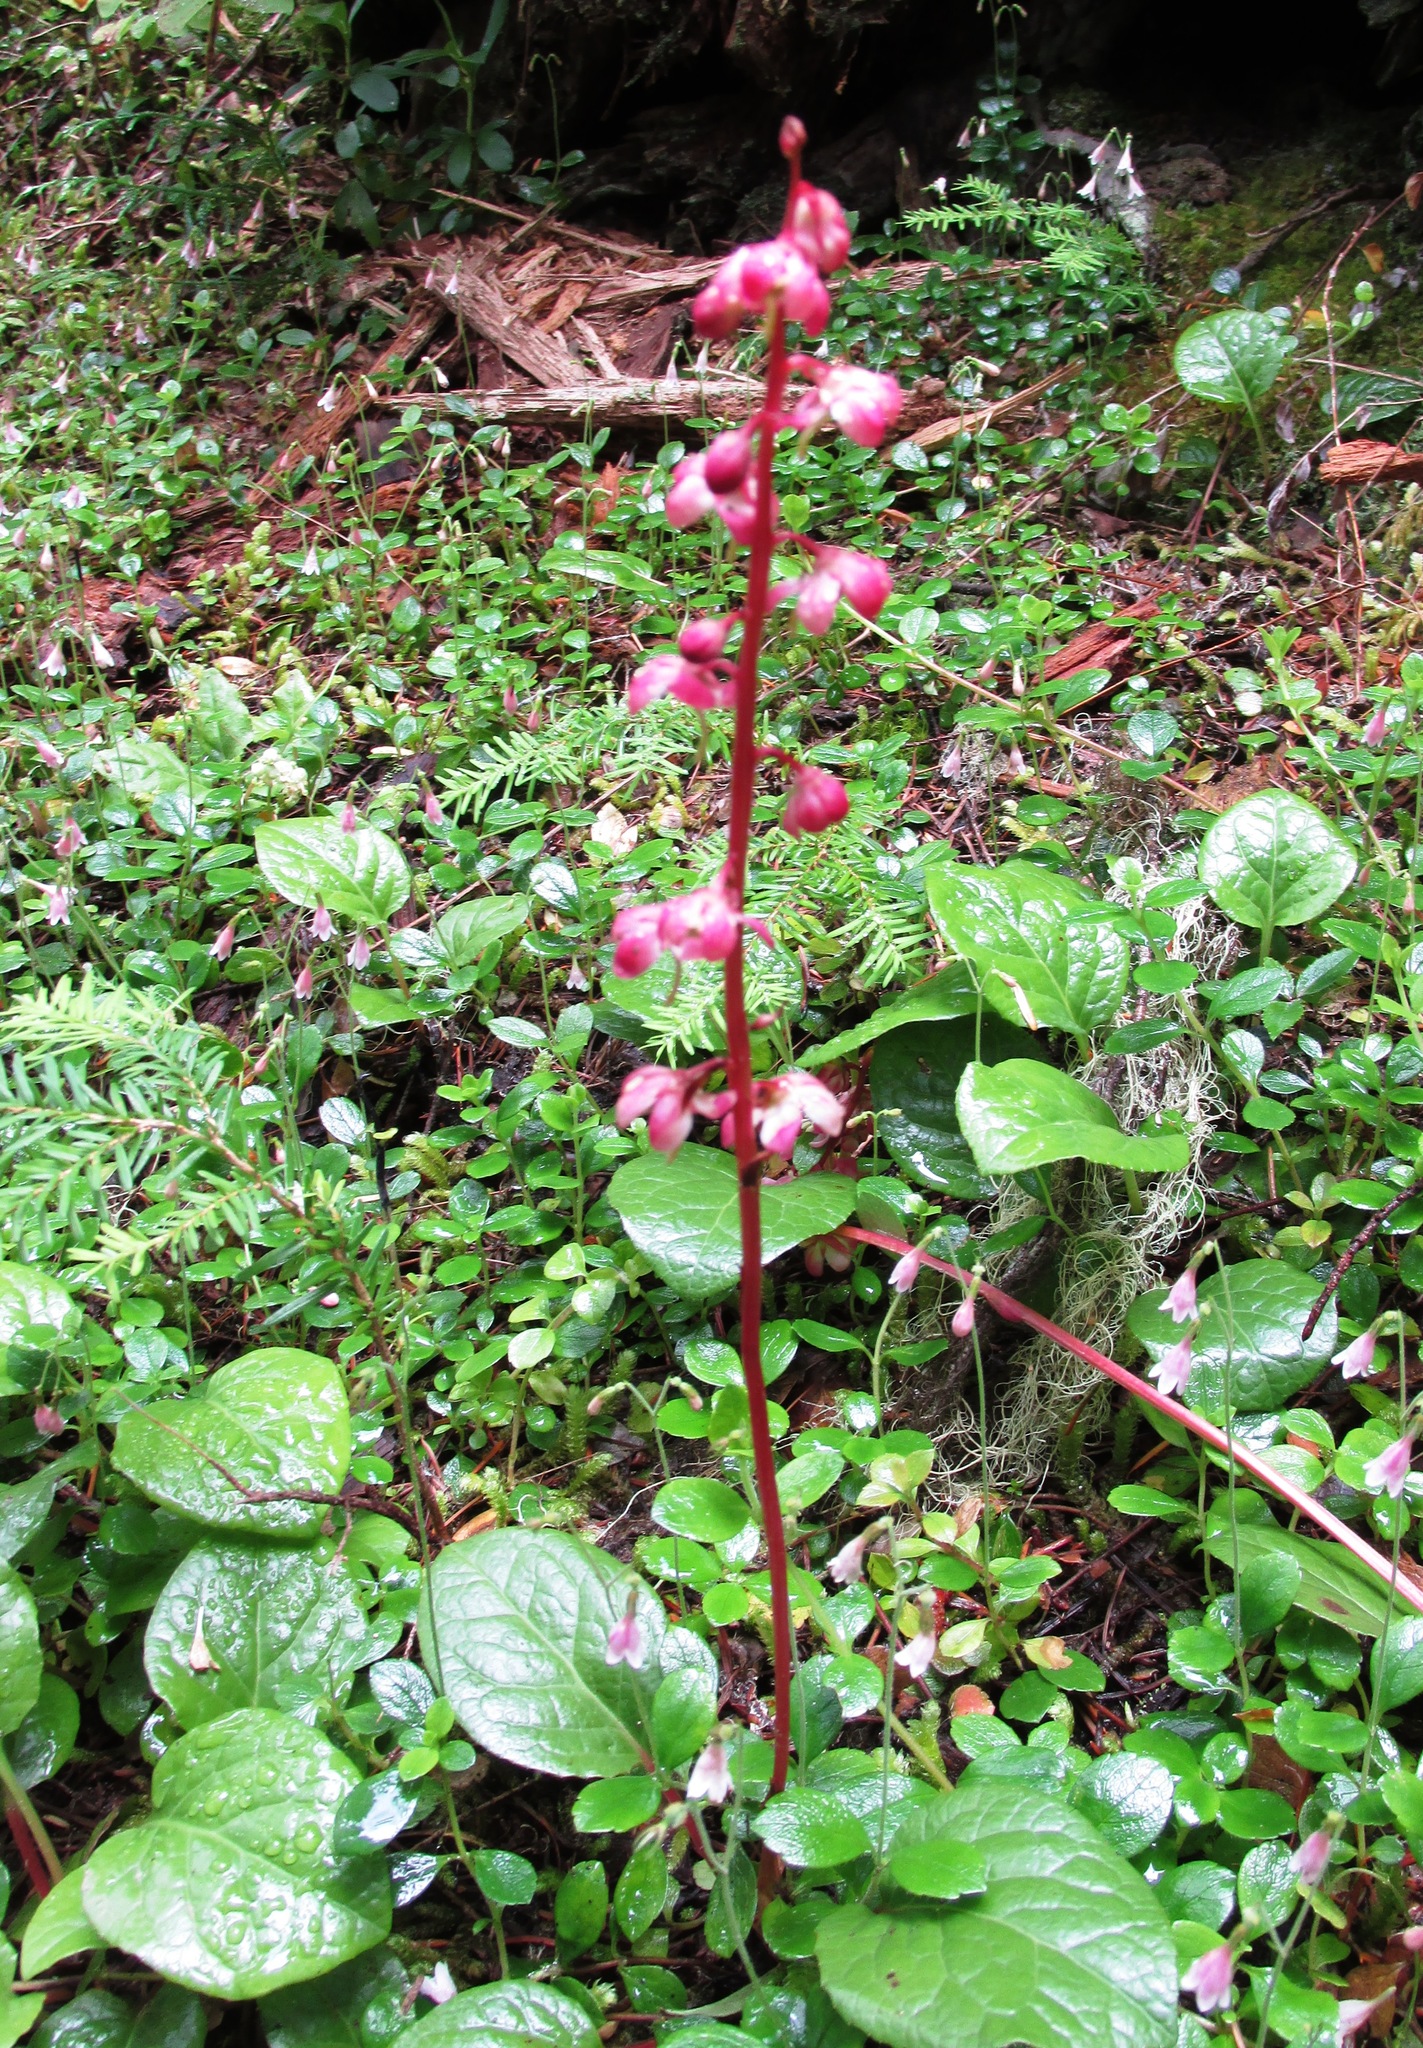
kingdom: Plantae
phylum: Tracheophyta
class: Magnoliopsida
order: Ericales
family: Ericaceae
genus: Pyrola
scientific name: Pyrola asarifolia
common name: Bog wintergreen
